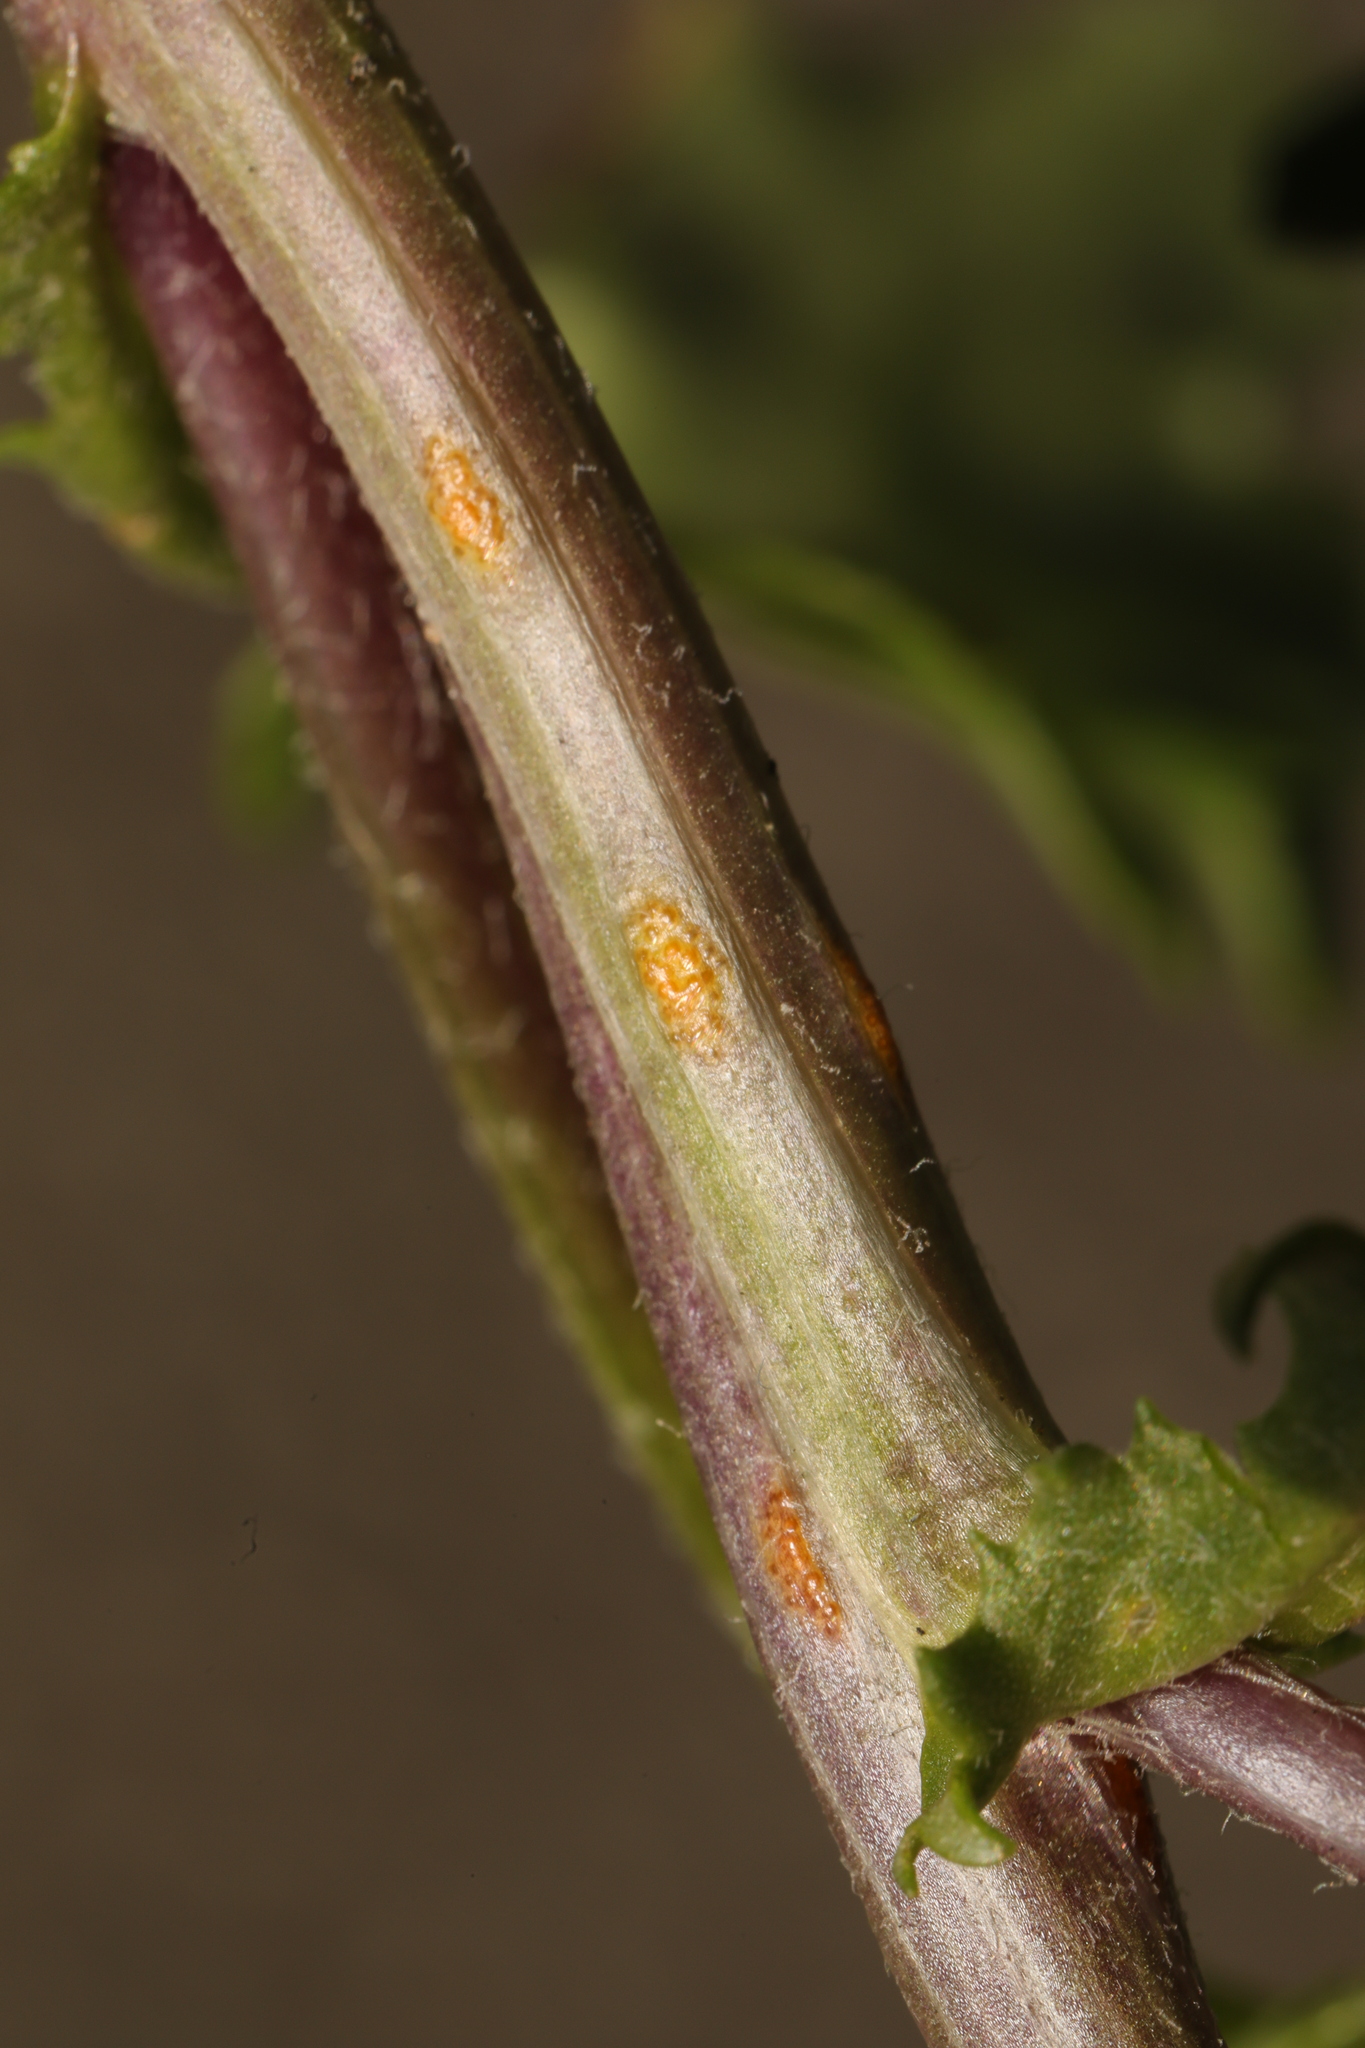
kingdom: Fungi
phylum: Basidiomycota
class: Pucciniomycetes
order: Pucciniales
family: Pucciniaceae
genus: Puccinia
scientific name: Puccinia lagenophorae
